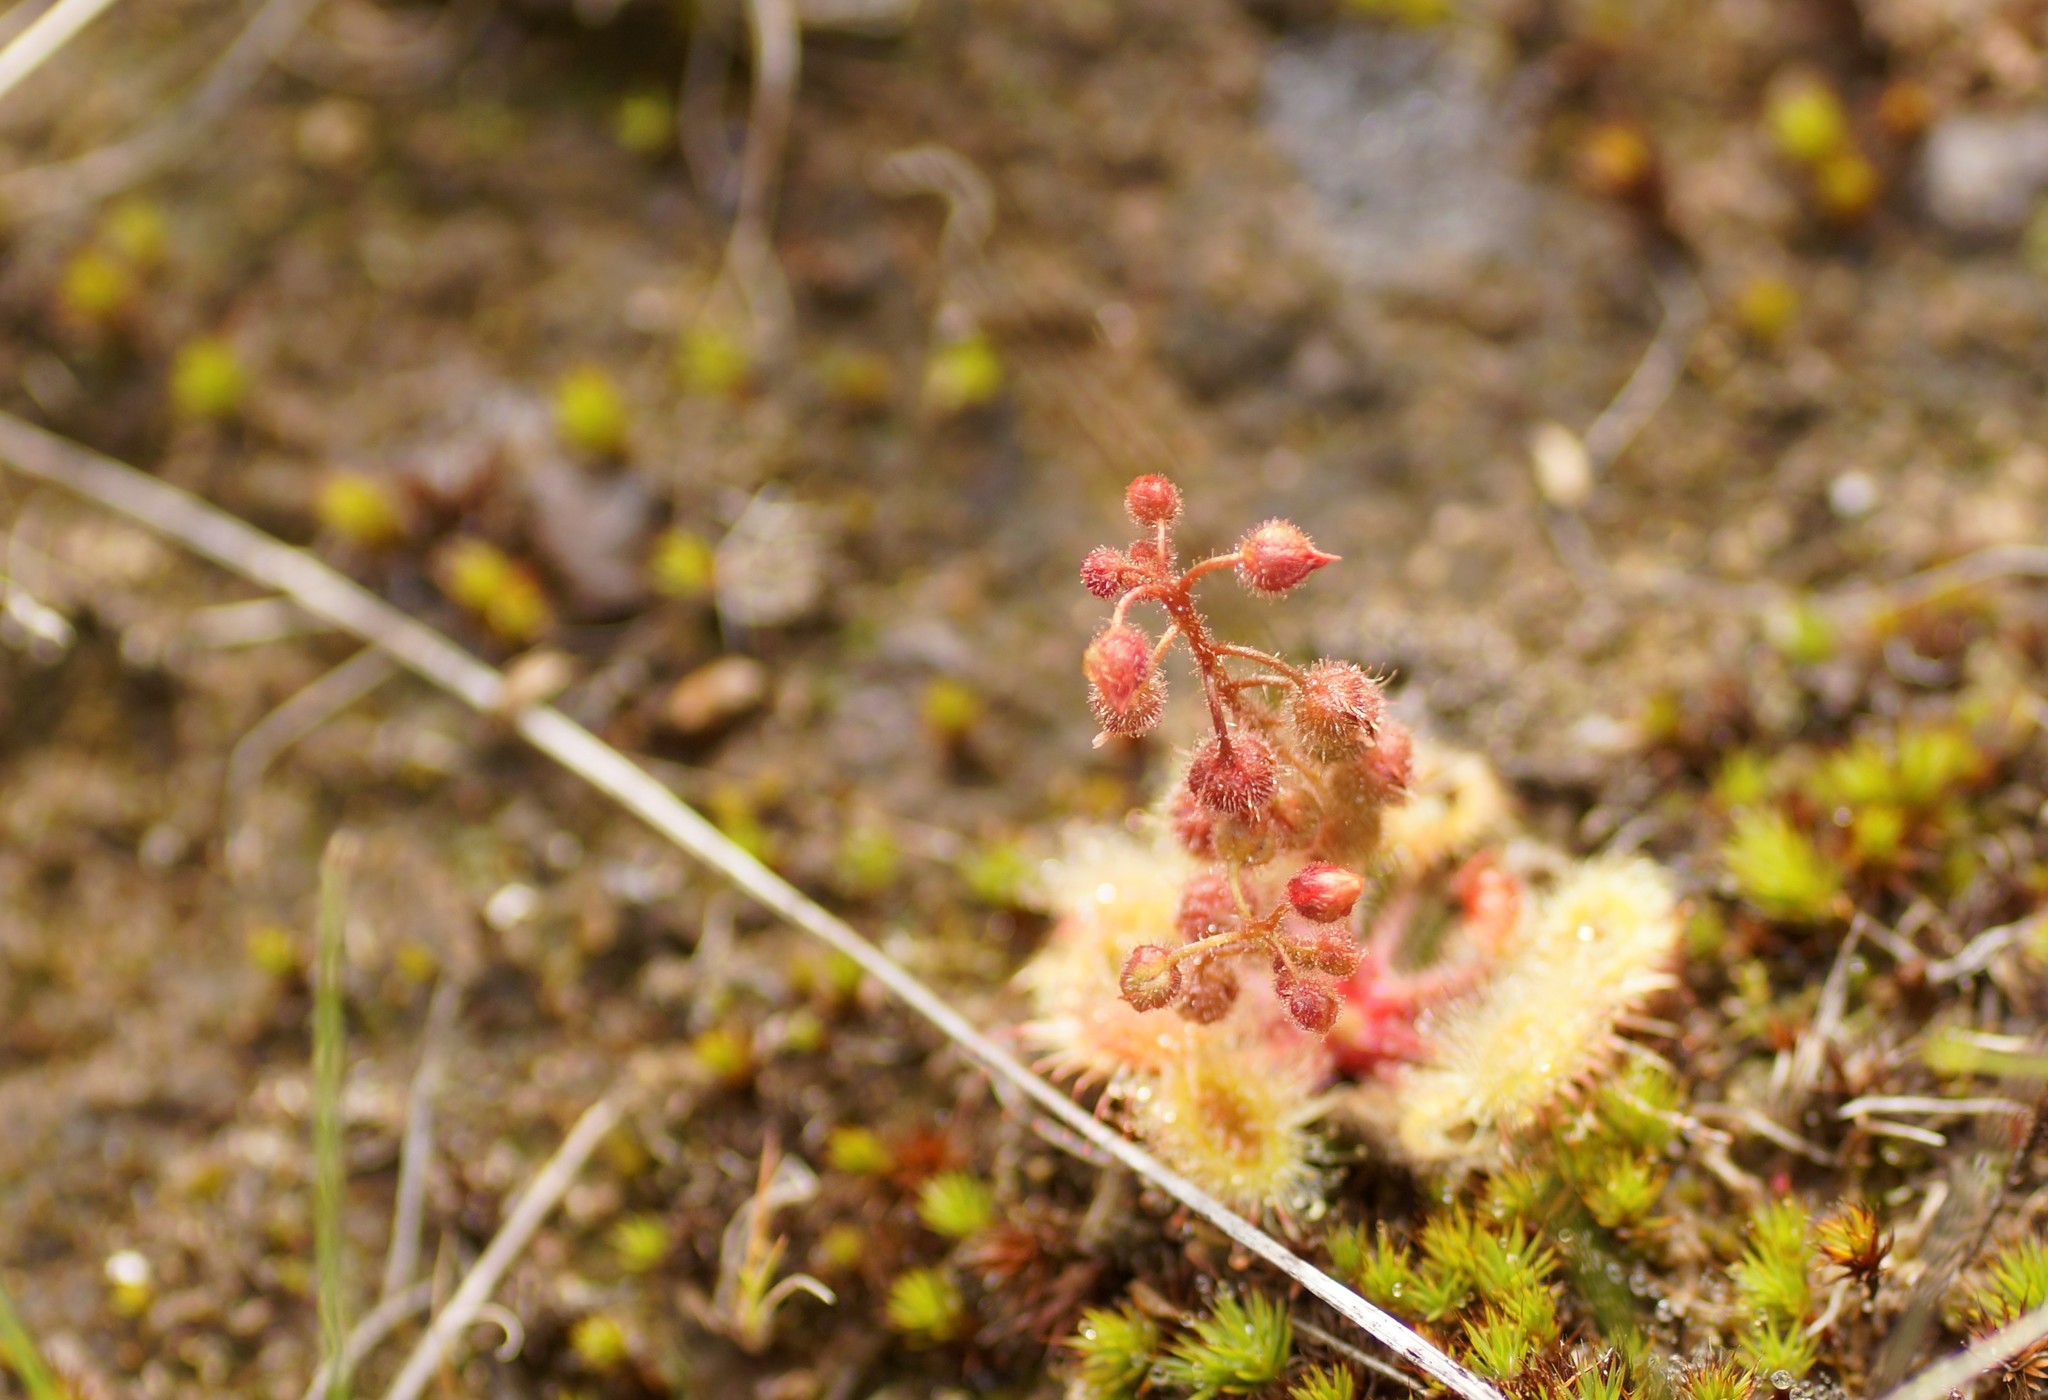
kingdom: Plantae
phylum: Tracheophyta
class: Magnoliopsida
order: Caryophyllales
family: Droseraceae
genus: Drosera
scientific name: Drosera glanduligera
